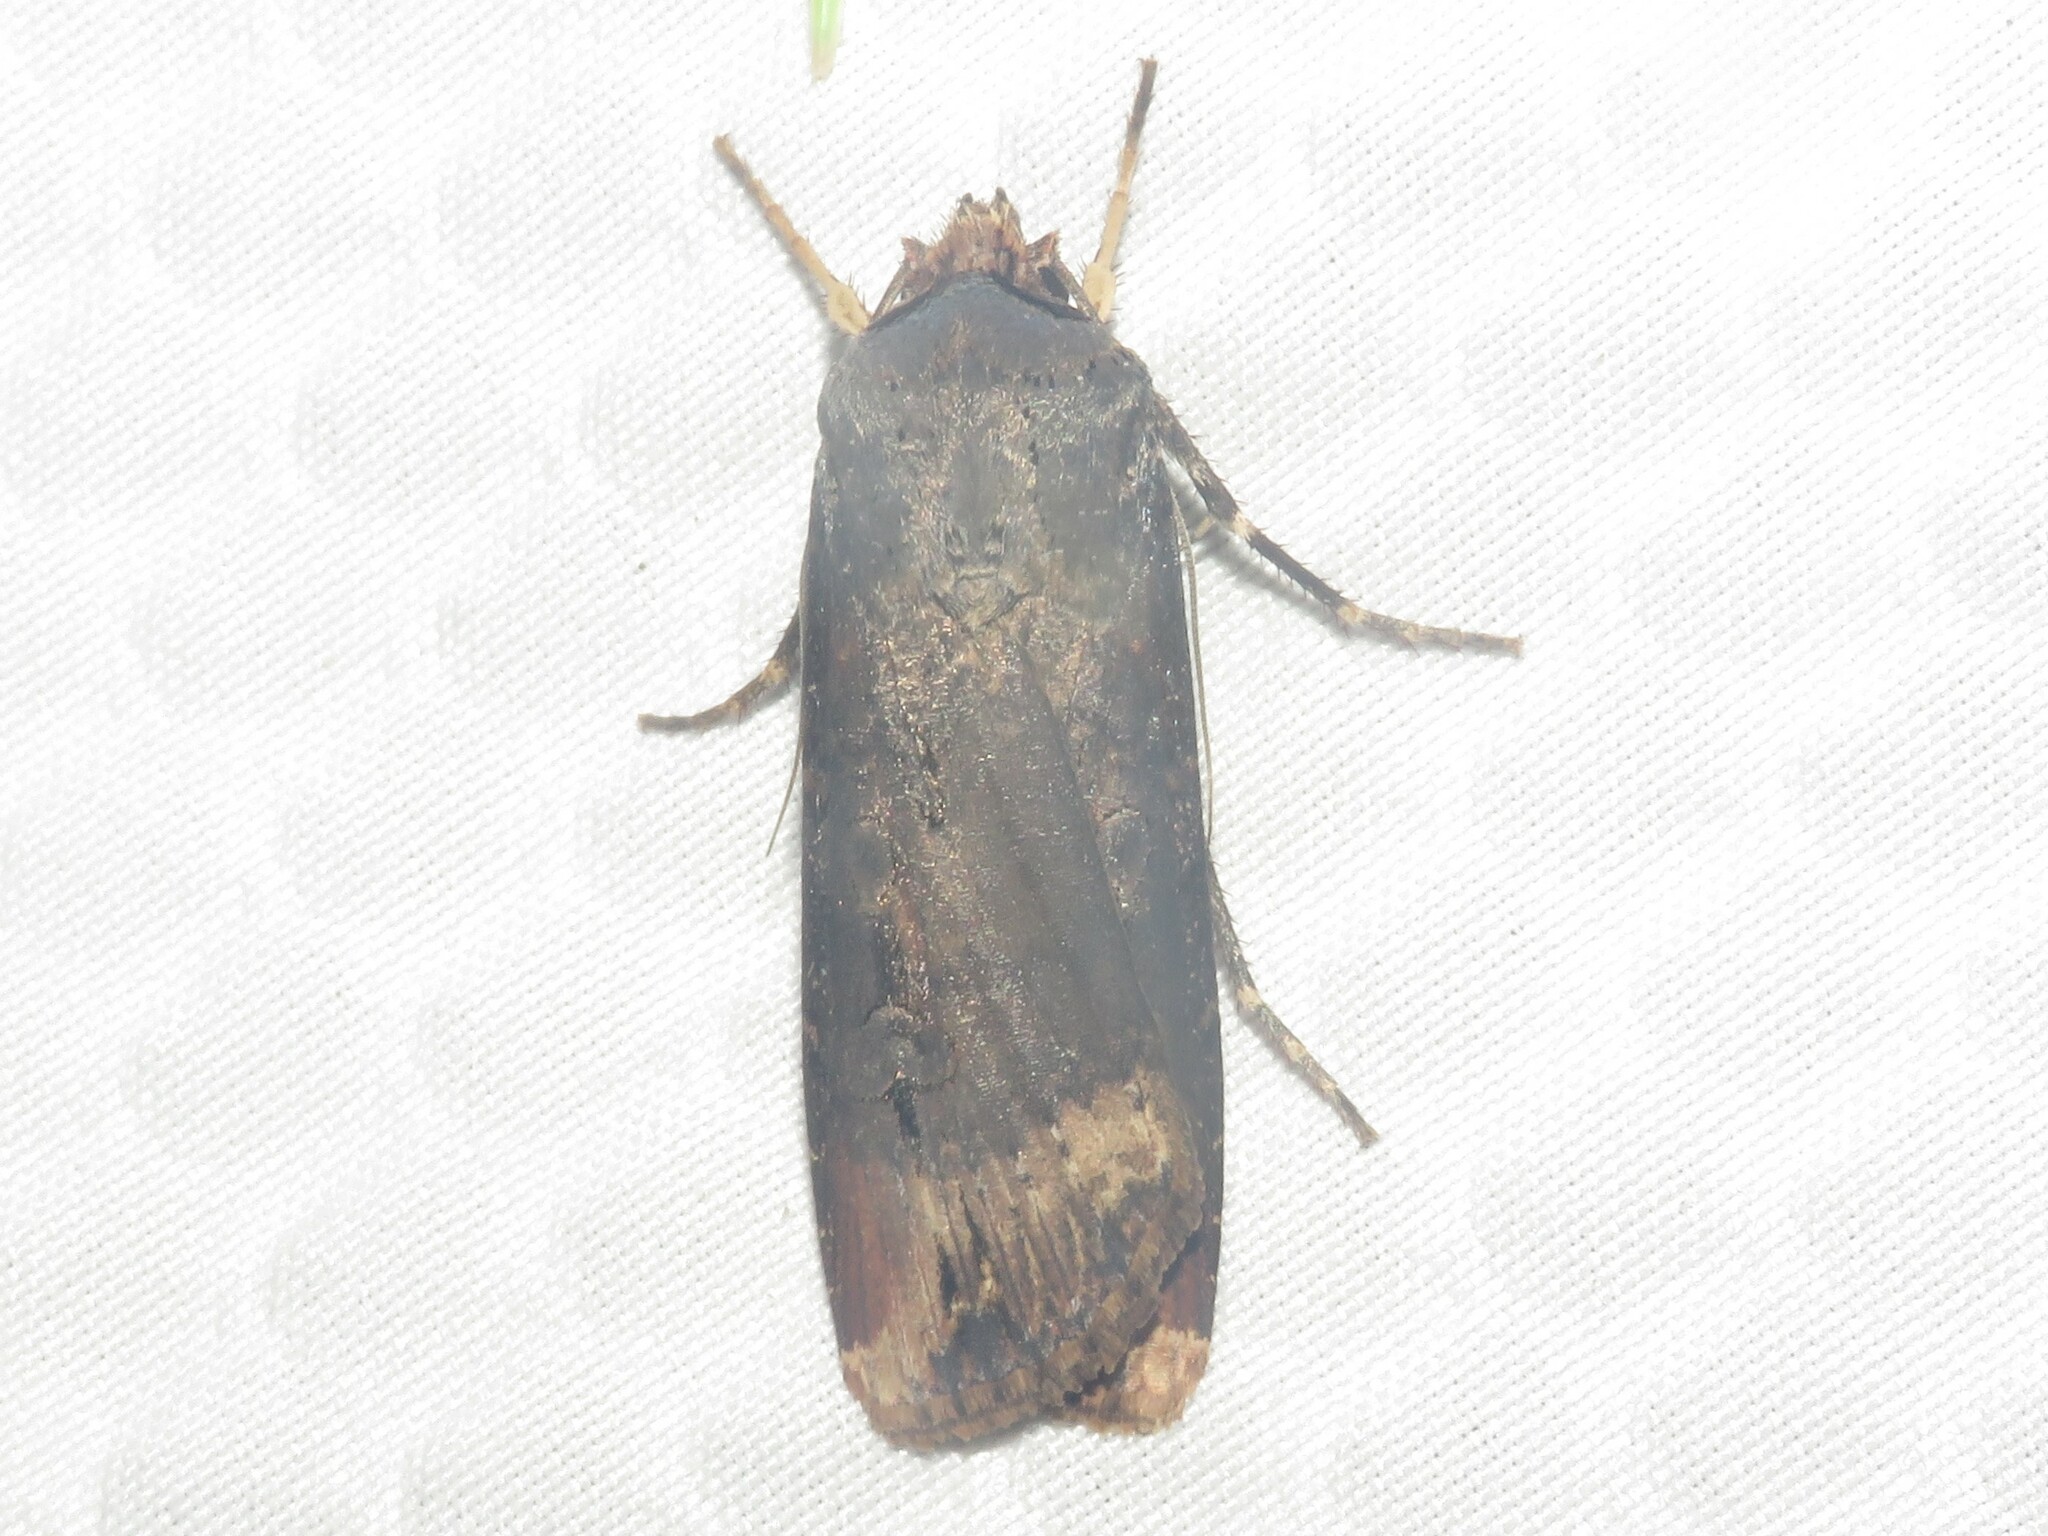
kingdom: Animalia
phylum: Arthropoda
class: Insecta
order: Lepidoptera
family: Noctuidae
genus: Agrotis
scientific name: Agrotis ipsilon
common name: Dark sword-grass
